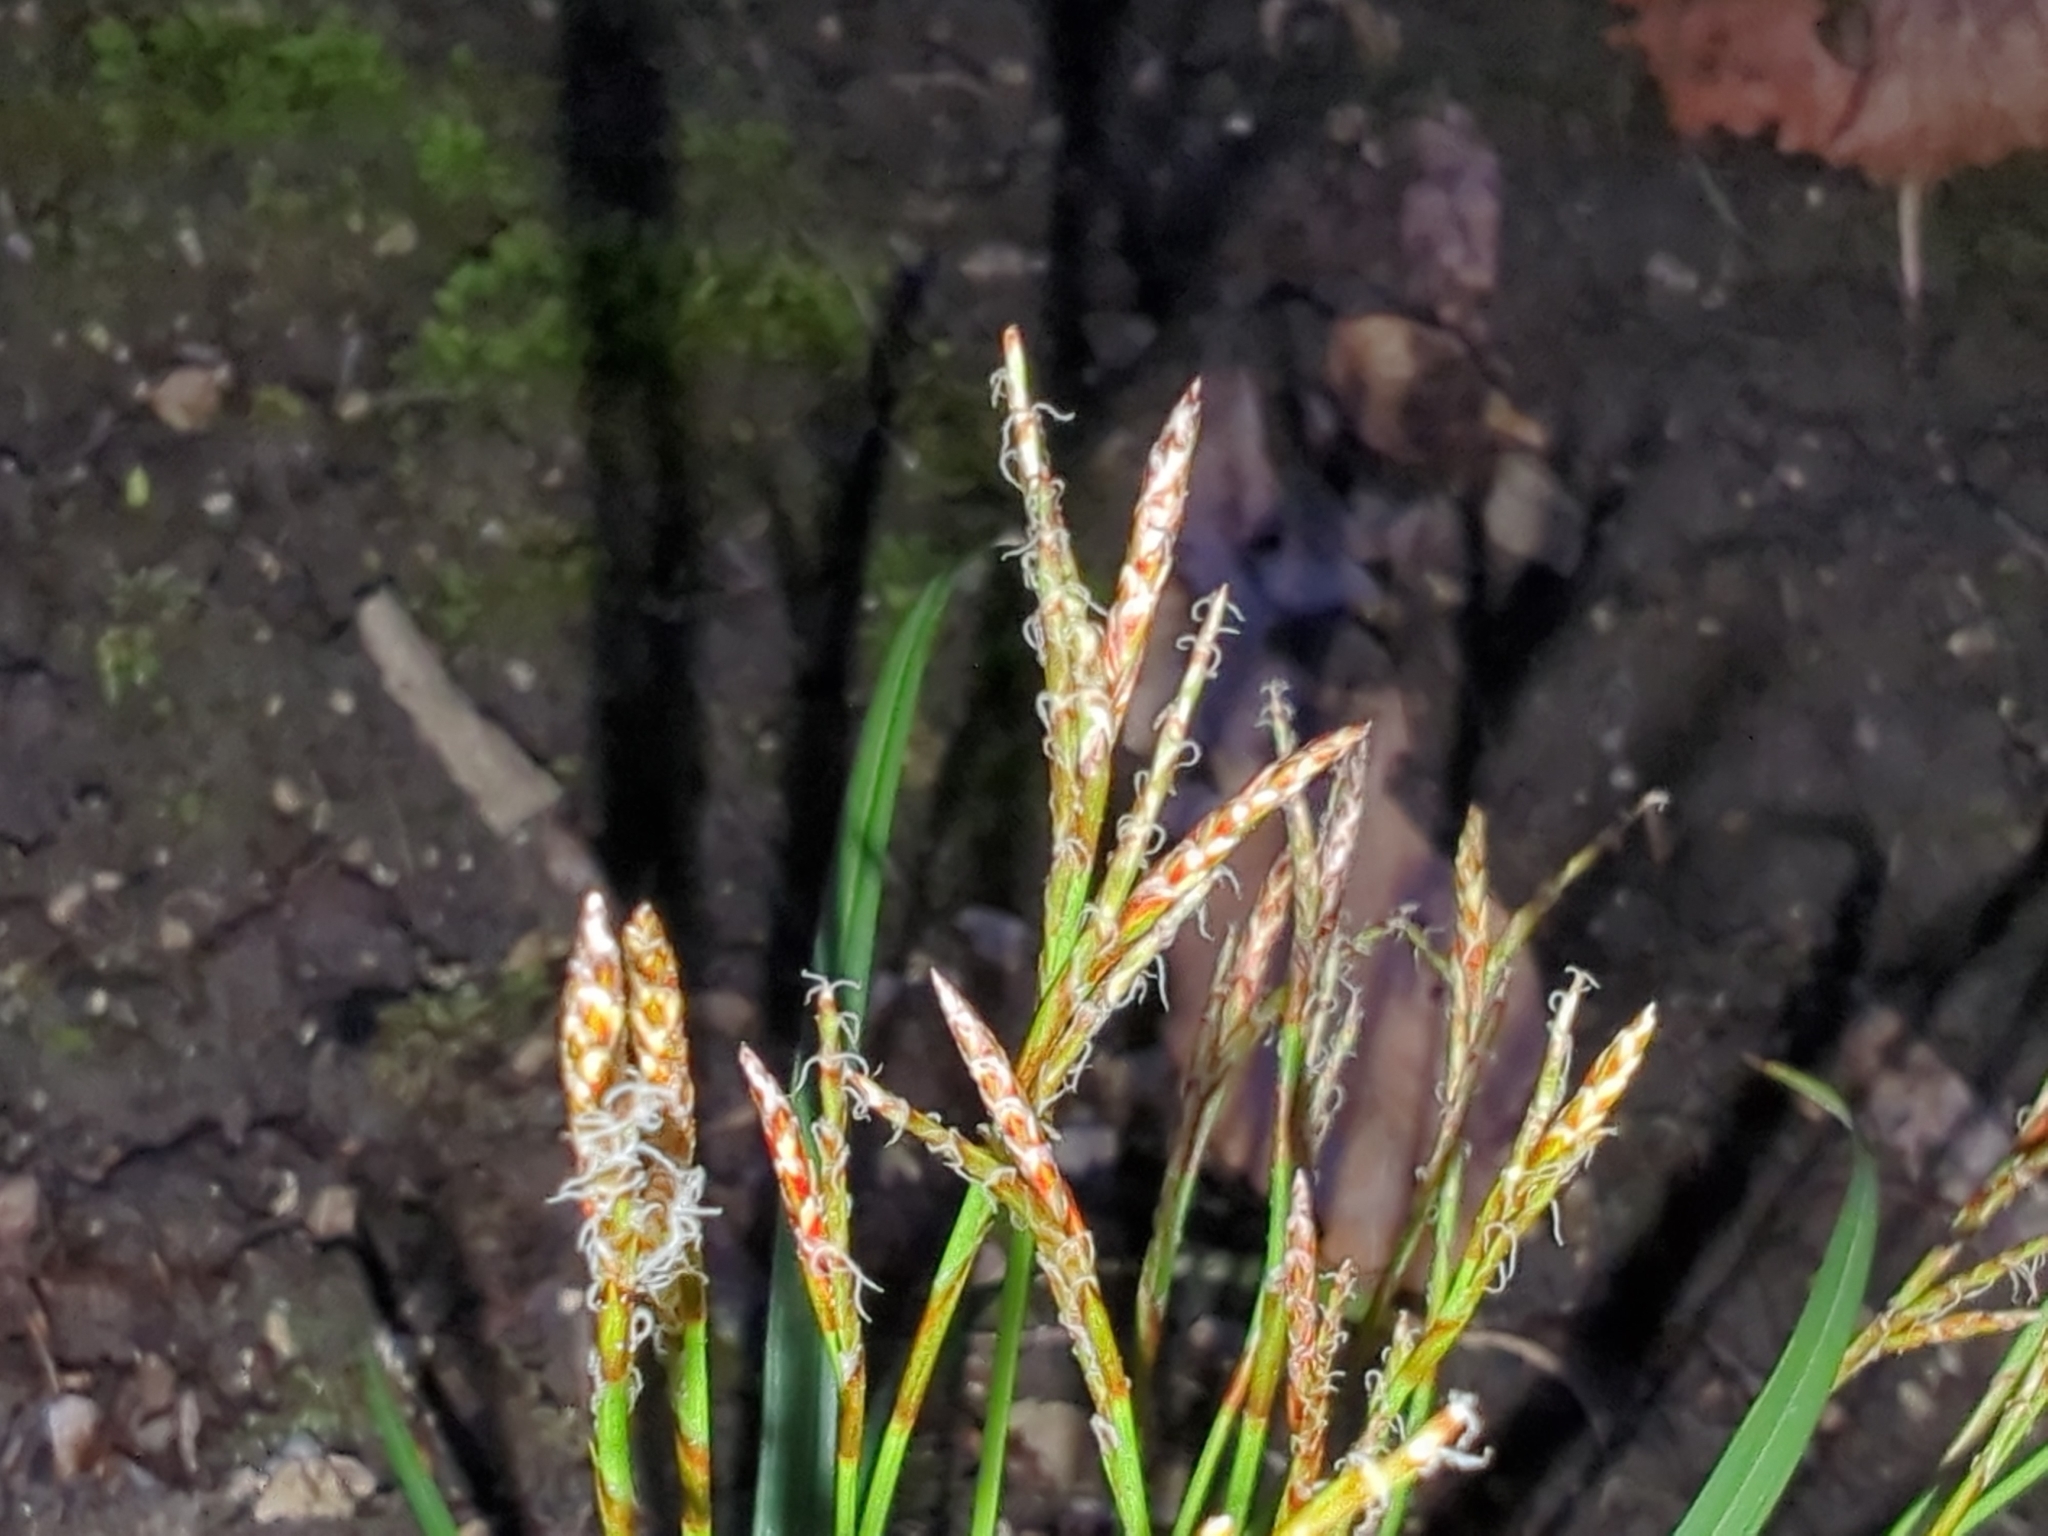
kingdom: Plantae
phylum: Tracheophyta
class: Liliopsida
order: Poales
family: Cyperaceae
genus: Carex
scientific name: Carex digitata
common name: Fingered sedge
